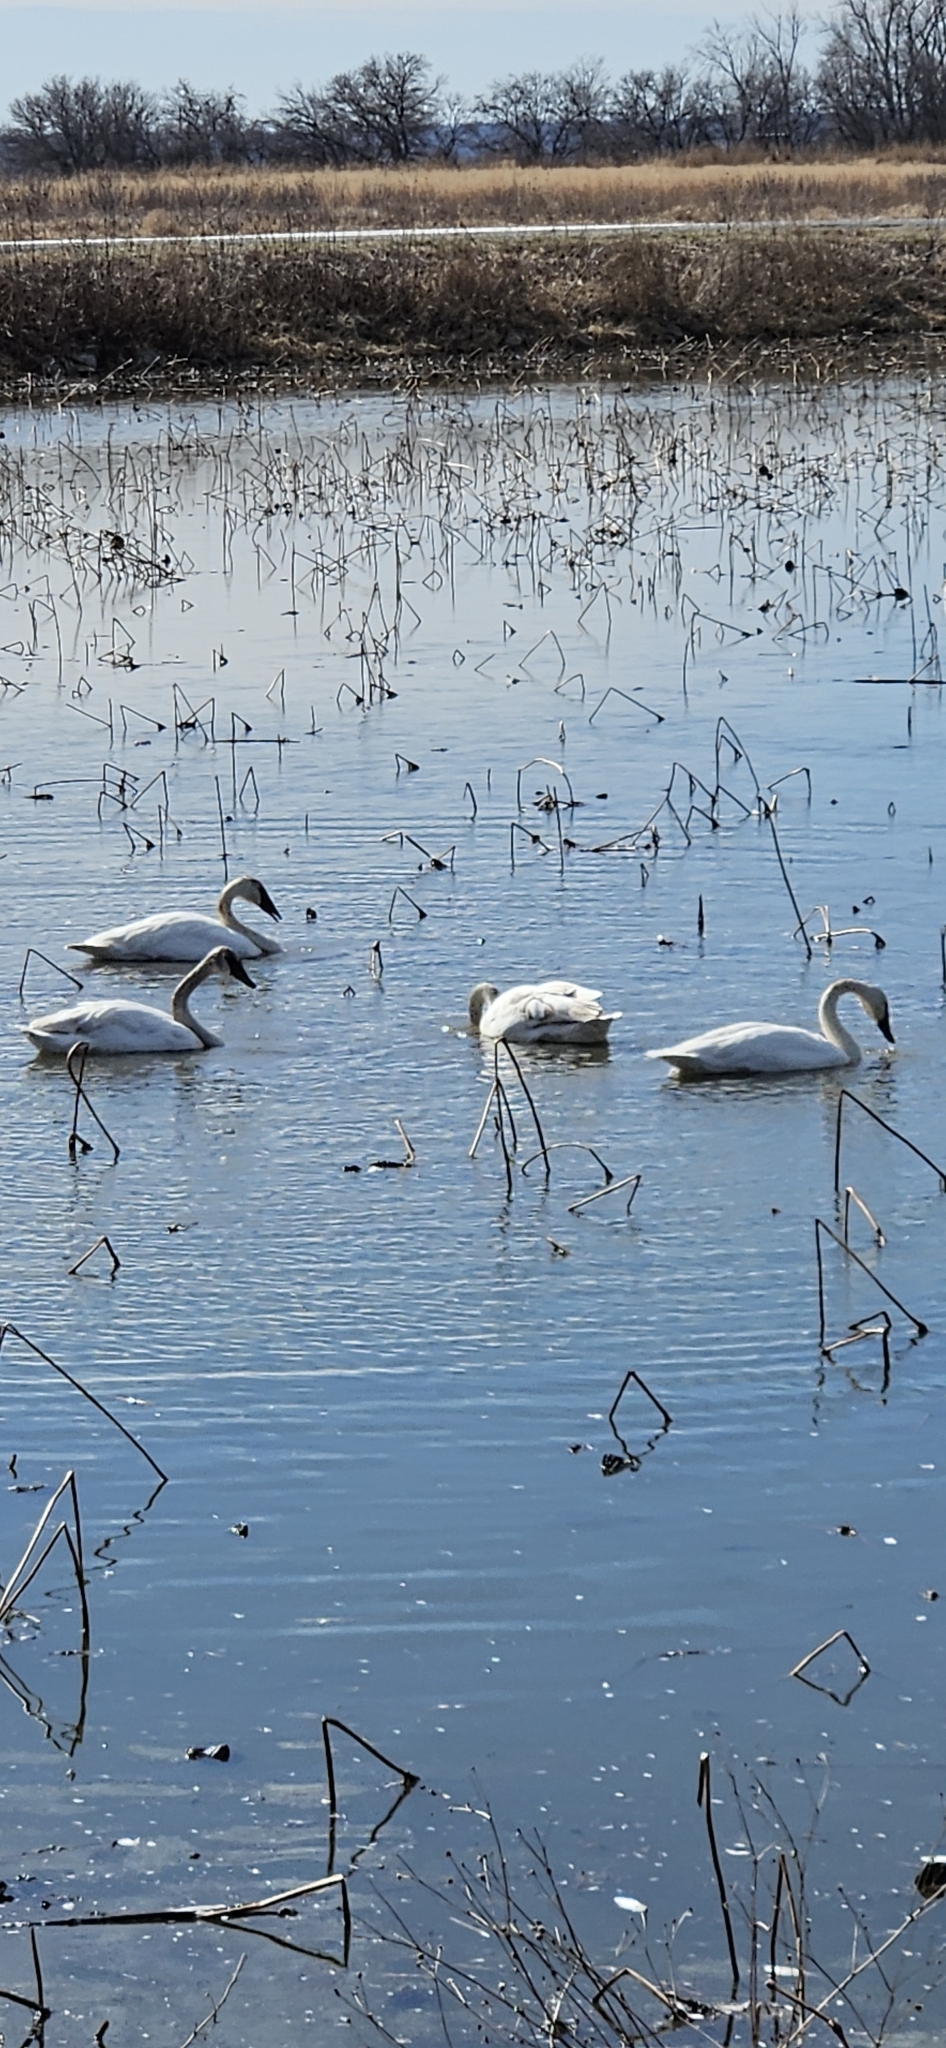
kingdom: Animalia
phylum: Chordata
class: Aves
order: Anseriformes
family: Anatidae
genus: Cygnus
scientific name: Cygnus buccinator
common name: Trumpeter swan
